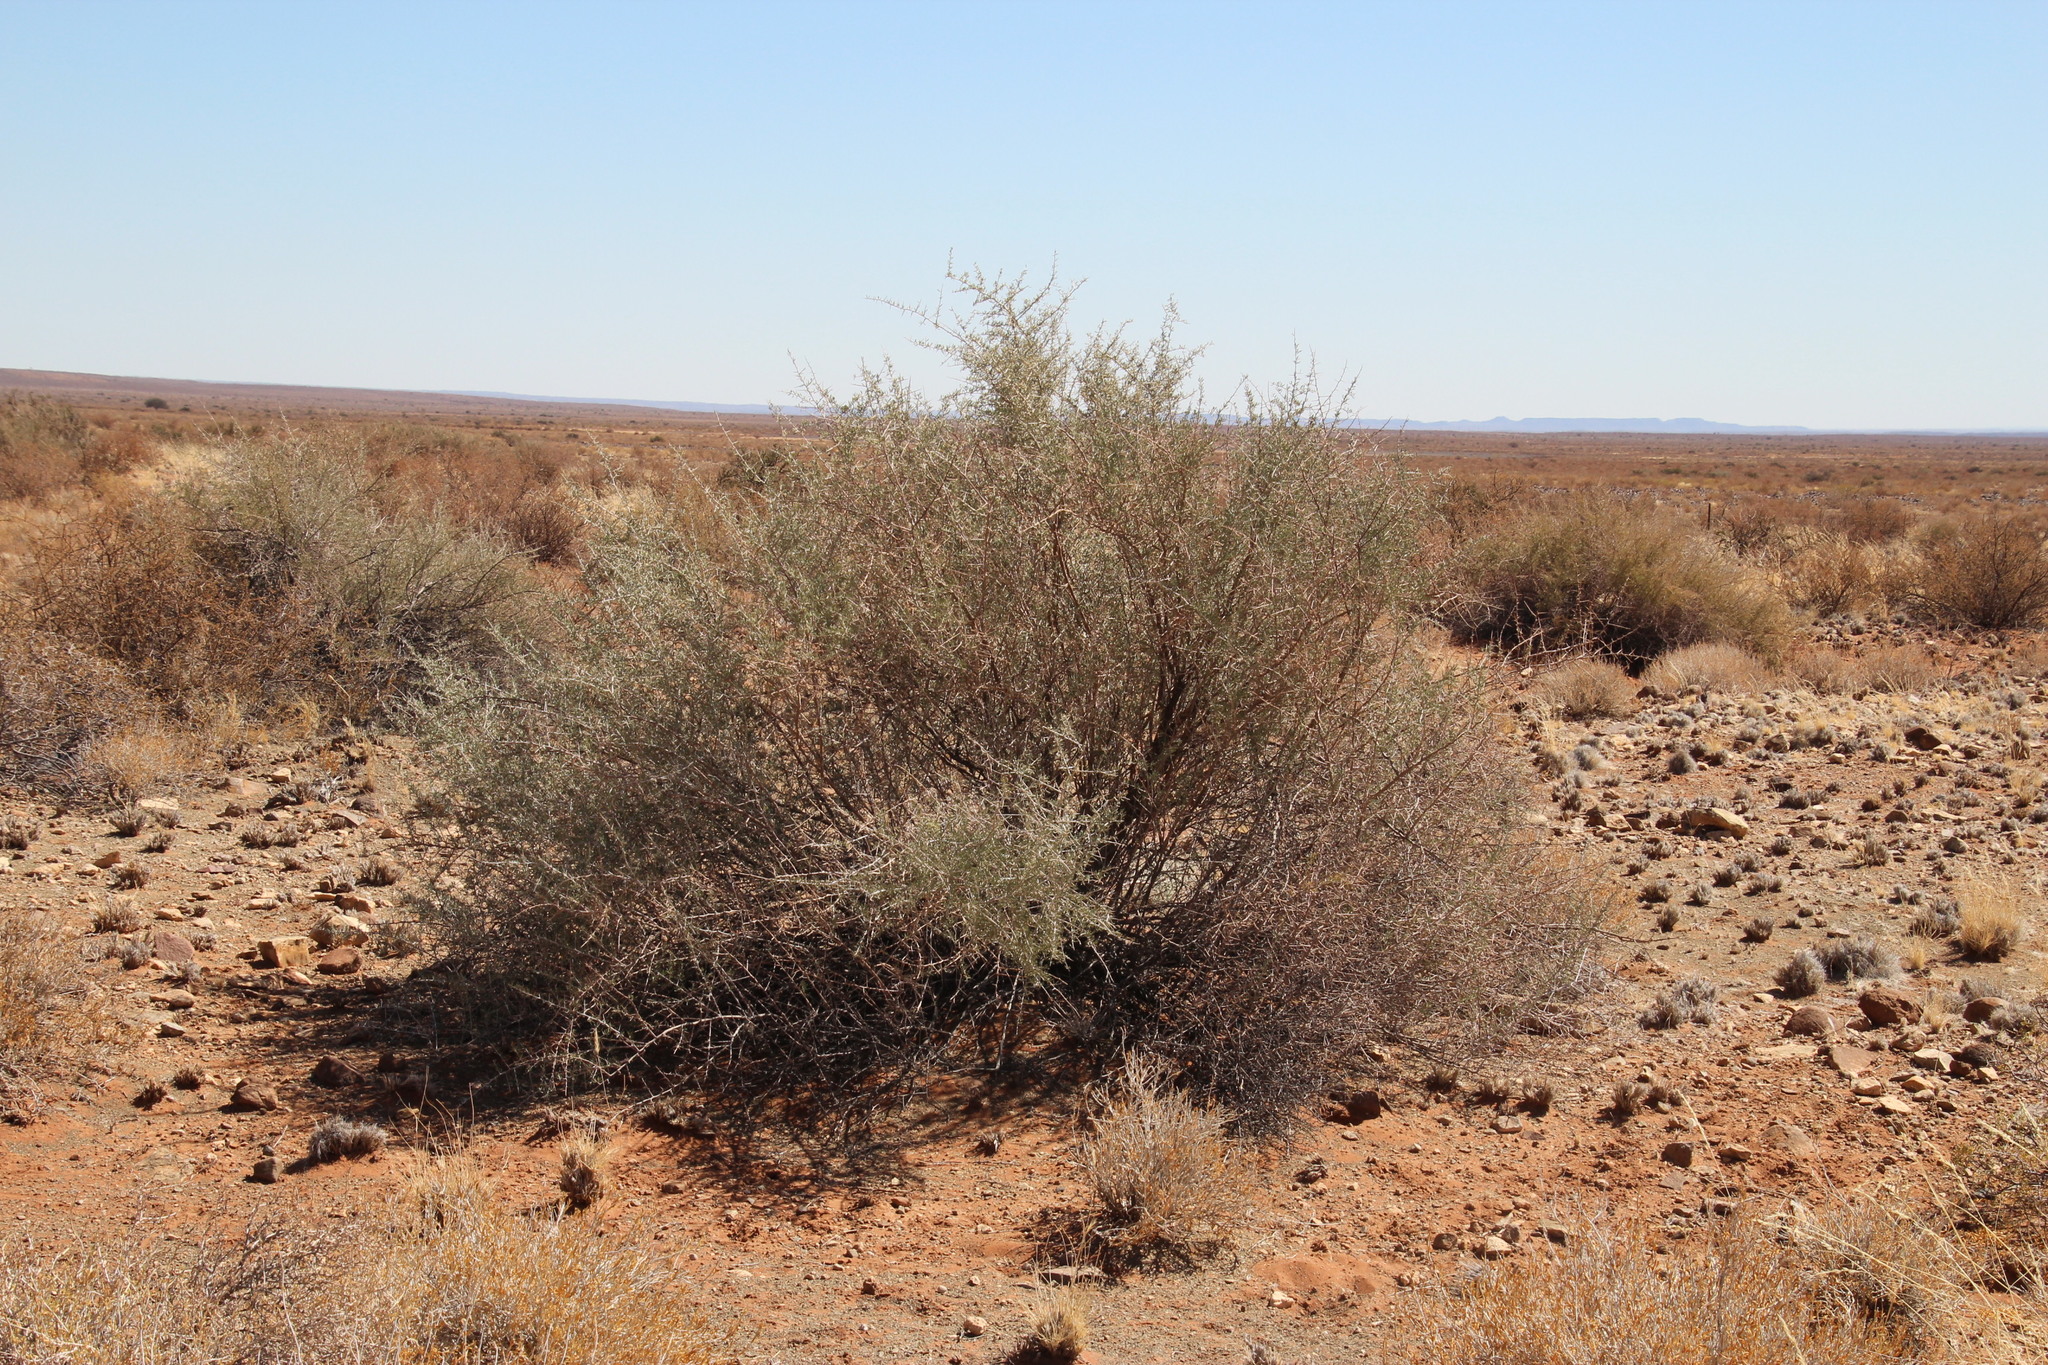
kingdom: Plantae
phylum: Tracheophyta
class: Magnoliopsida
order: Caryophyllales
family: Nyctaginaceae
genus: Phaeoptilum
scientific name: Phaeoptilum spinosum
